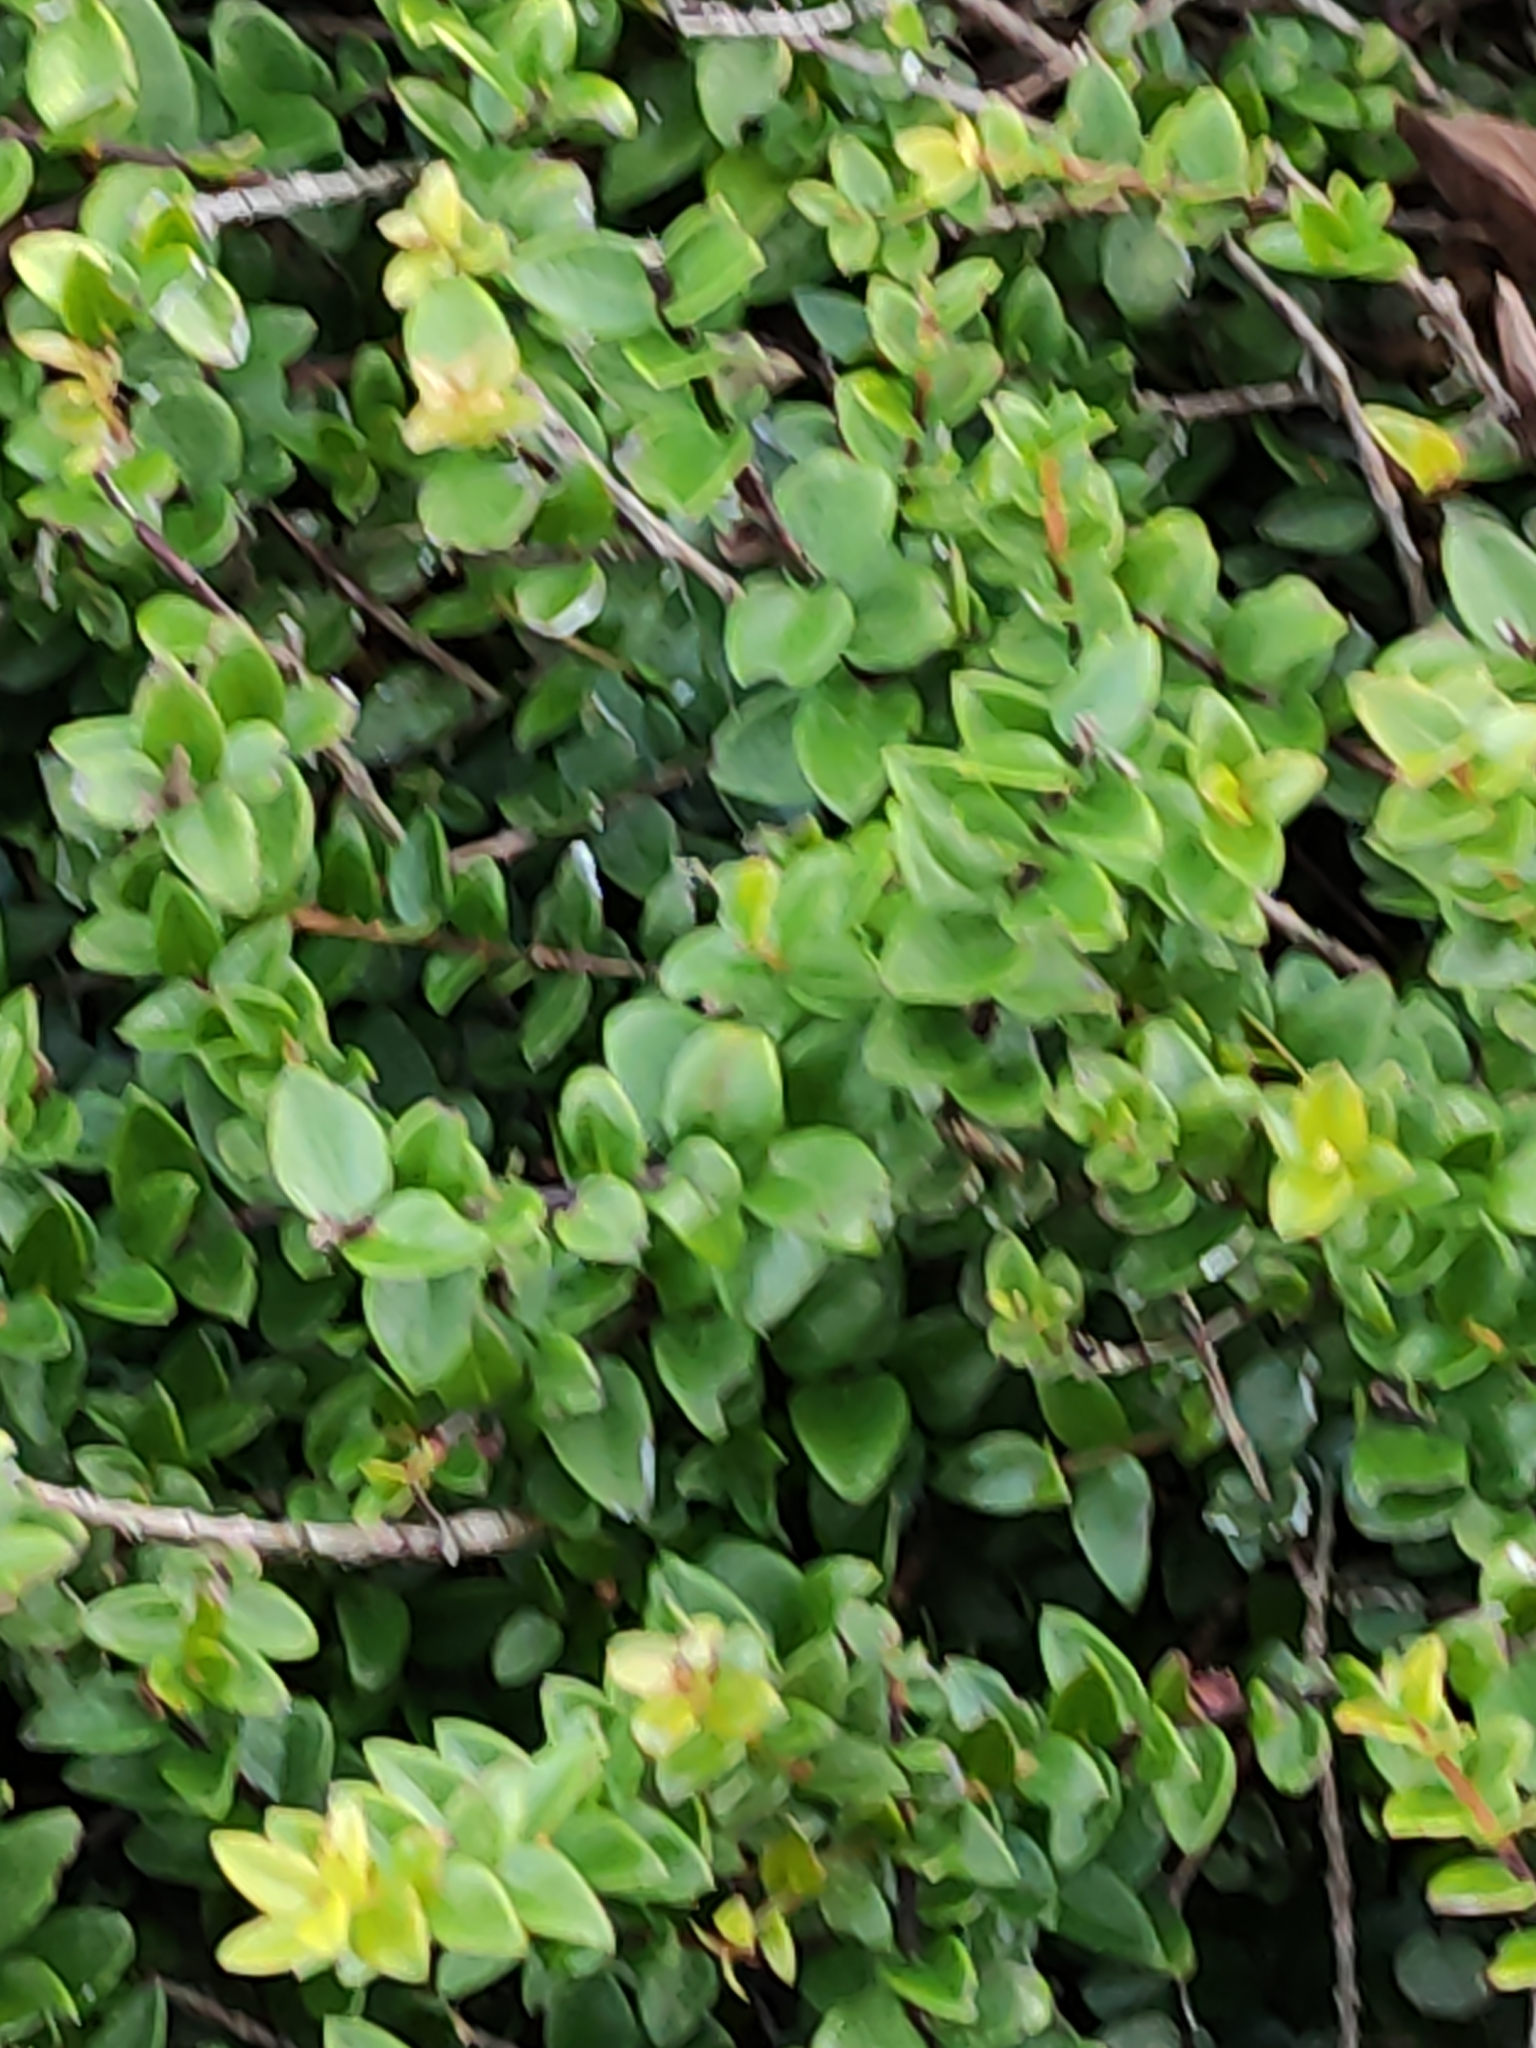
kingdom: Plantae
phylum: Tracheophyta
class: Magnoliopsida
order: Myrtales
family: Myrtaceae
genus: Metrosideros
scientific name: Metrosideros diffusa
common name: Small ratavine
